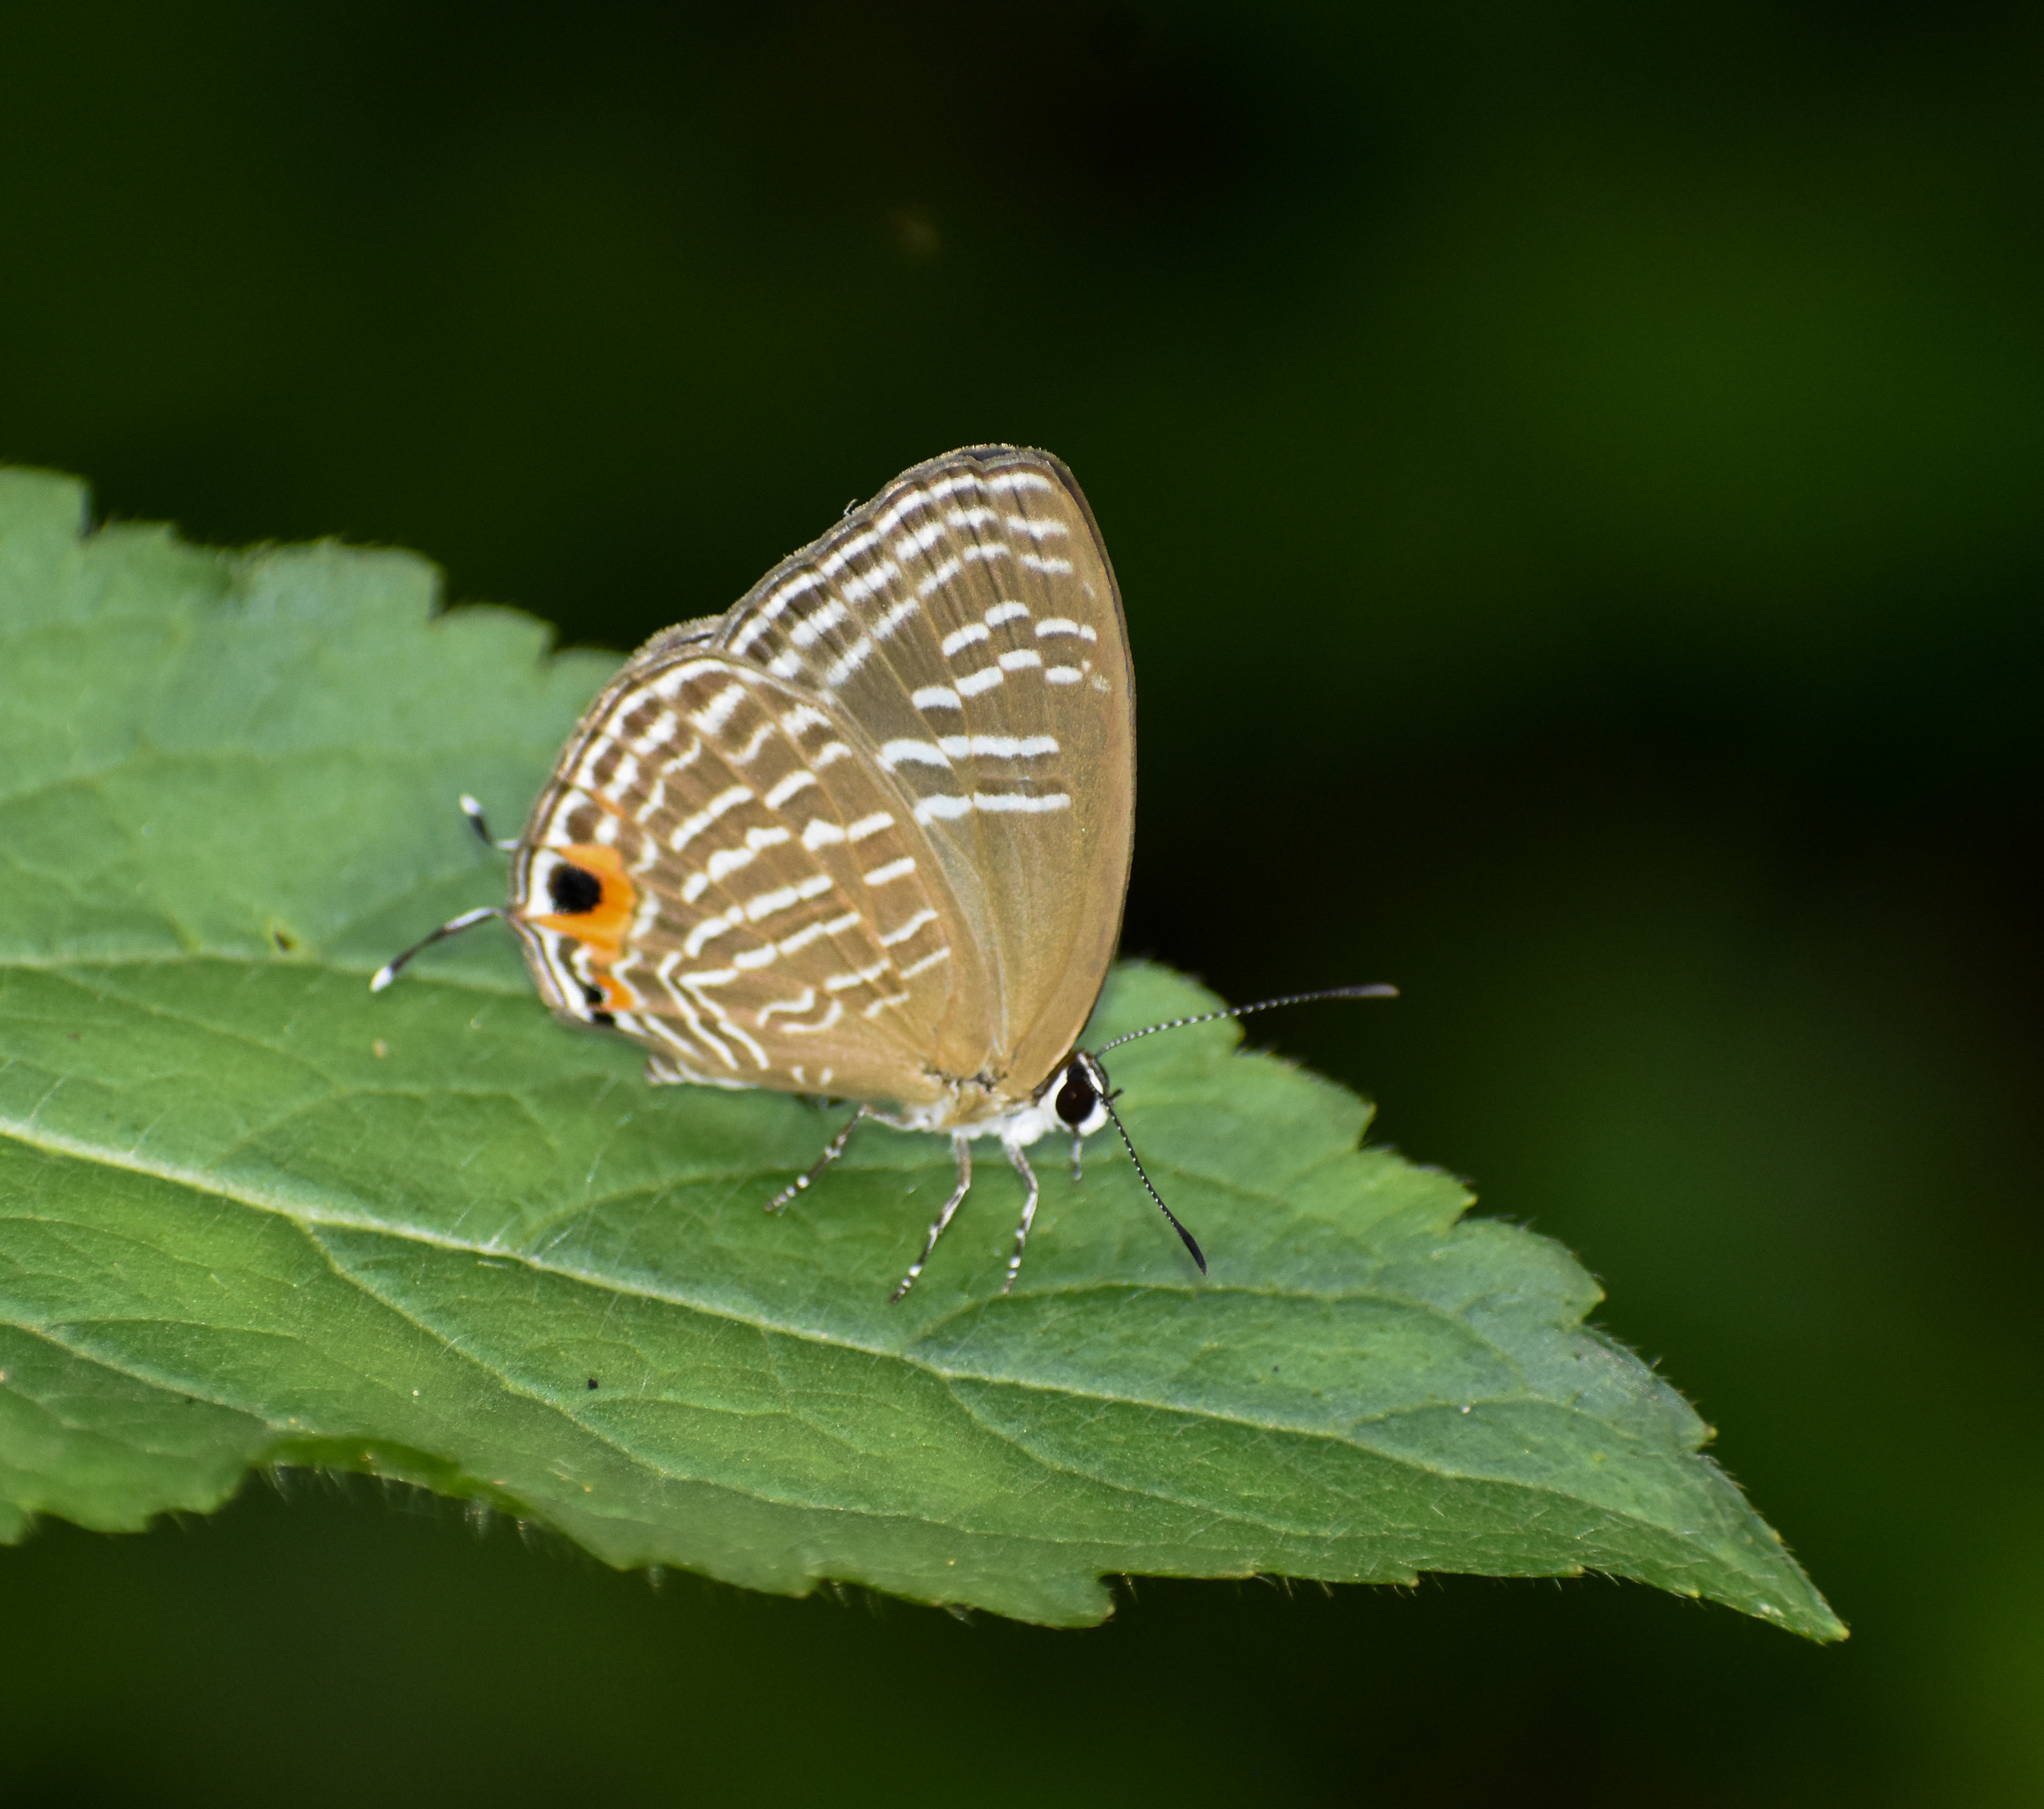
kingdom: Animalia
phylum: Arthropoda
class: Insecta
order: Lepidoptera
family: Lycaenidae
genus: Jamides
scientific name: Jamides alecto
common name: Metallic cerulean
